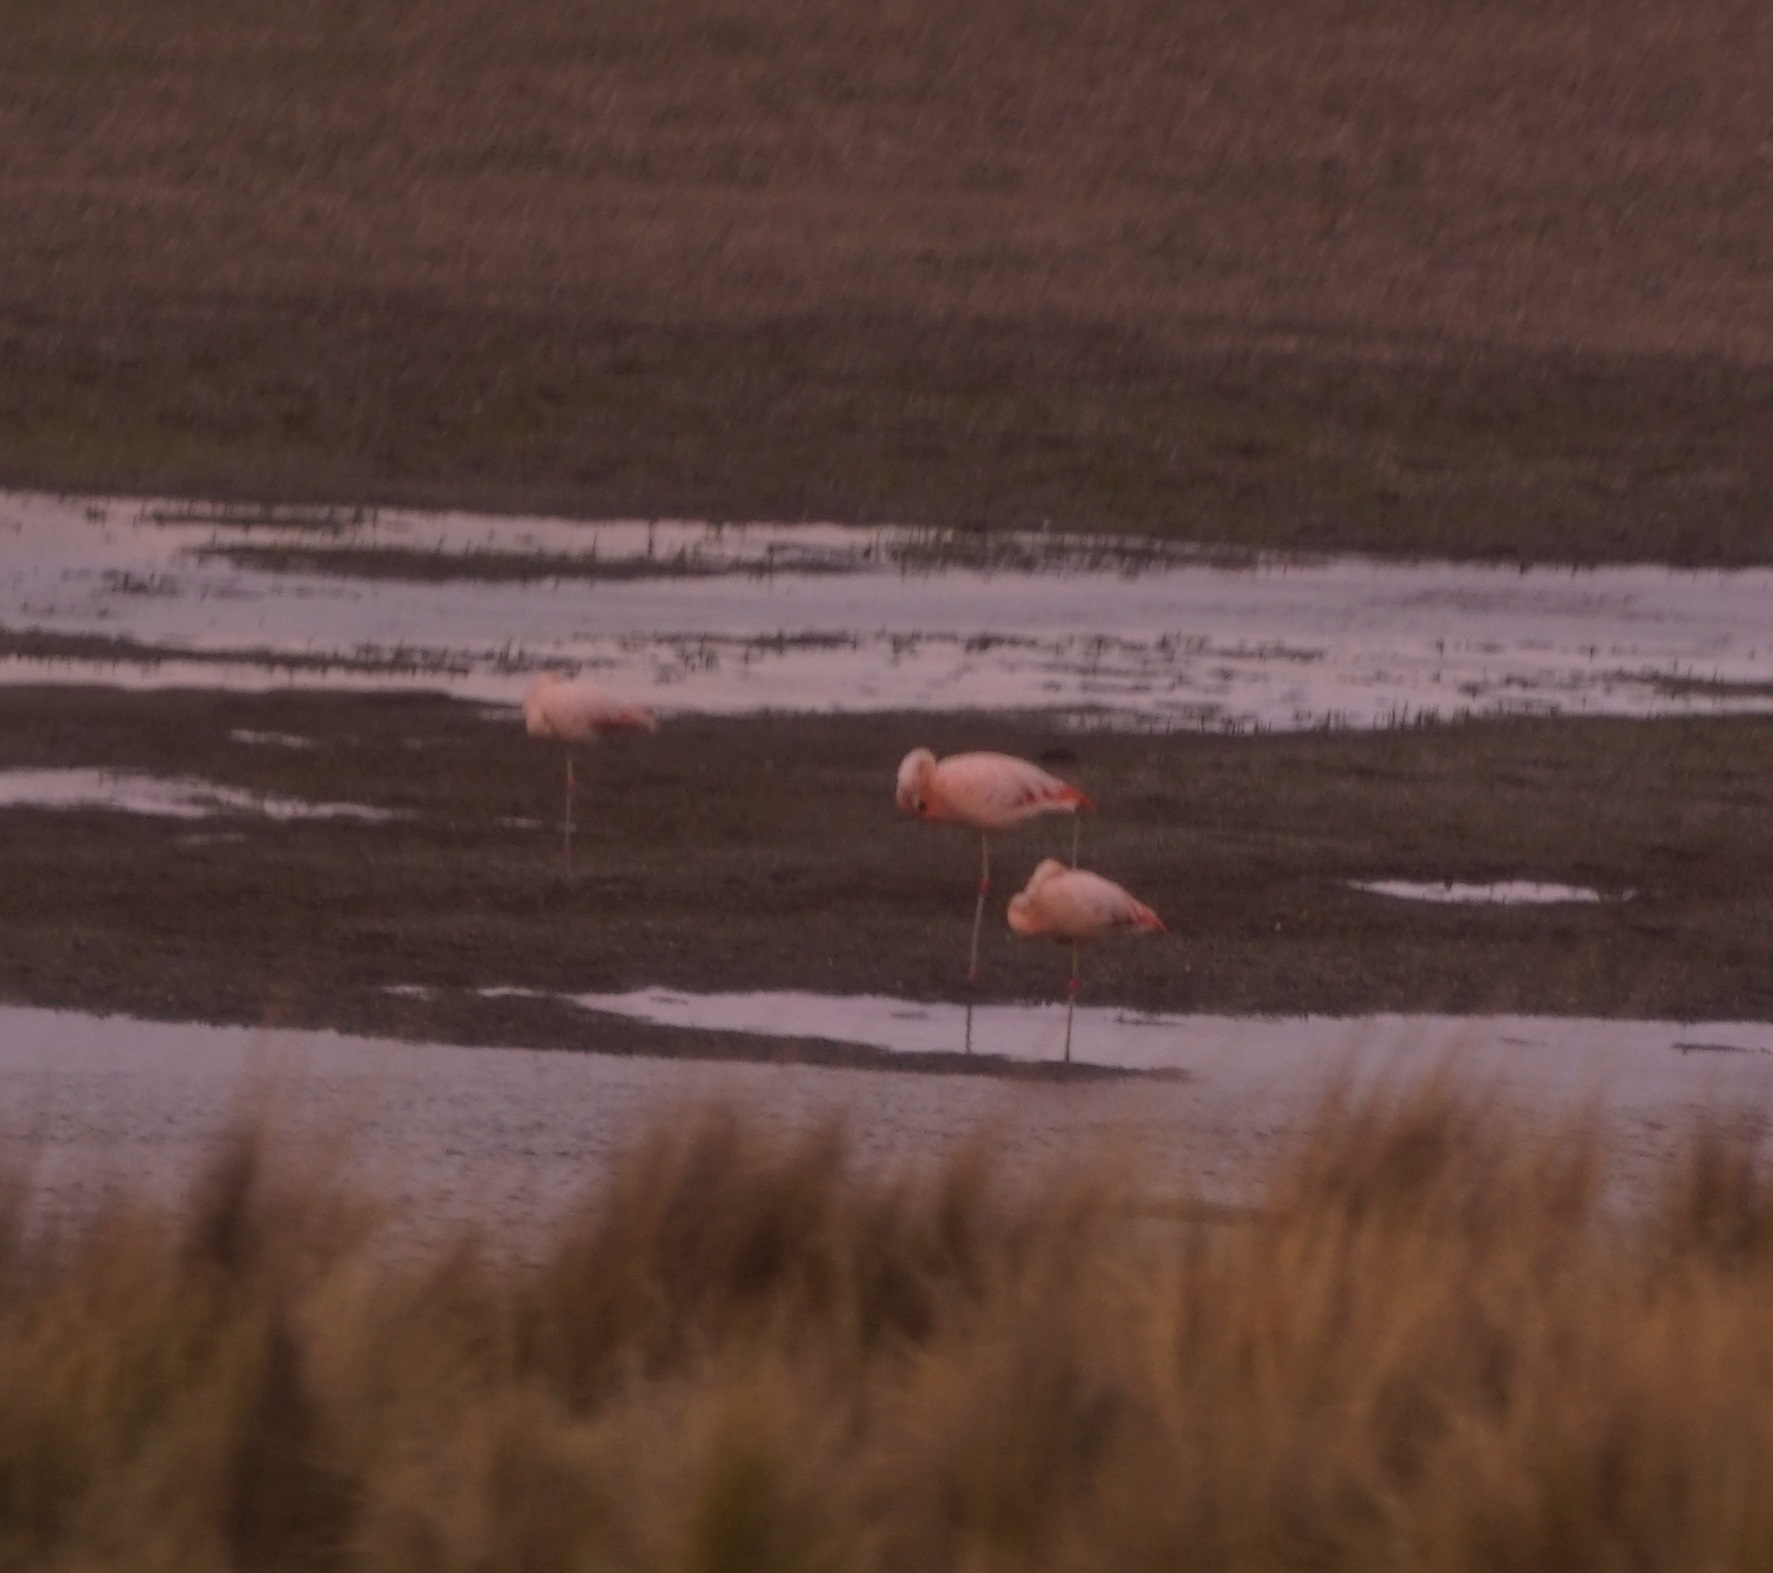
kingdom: Animalia
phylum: Chordata
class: Aves
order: Phoenicopteriformes
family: Phoenicopteridae
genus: Phoenicopterus
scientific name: Phoenicopterus chilensis
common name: Chilean flamingo
